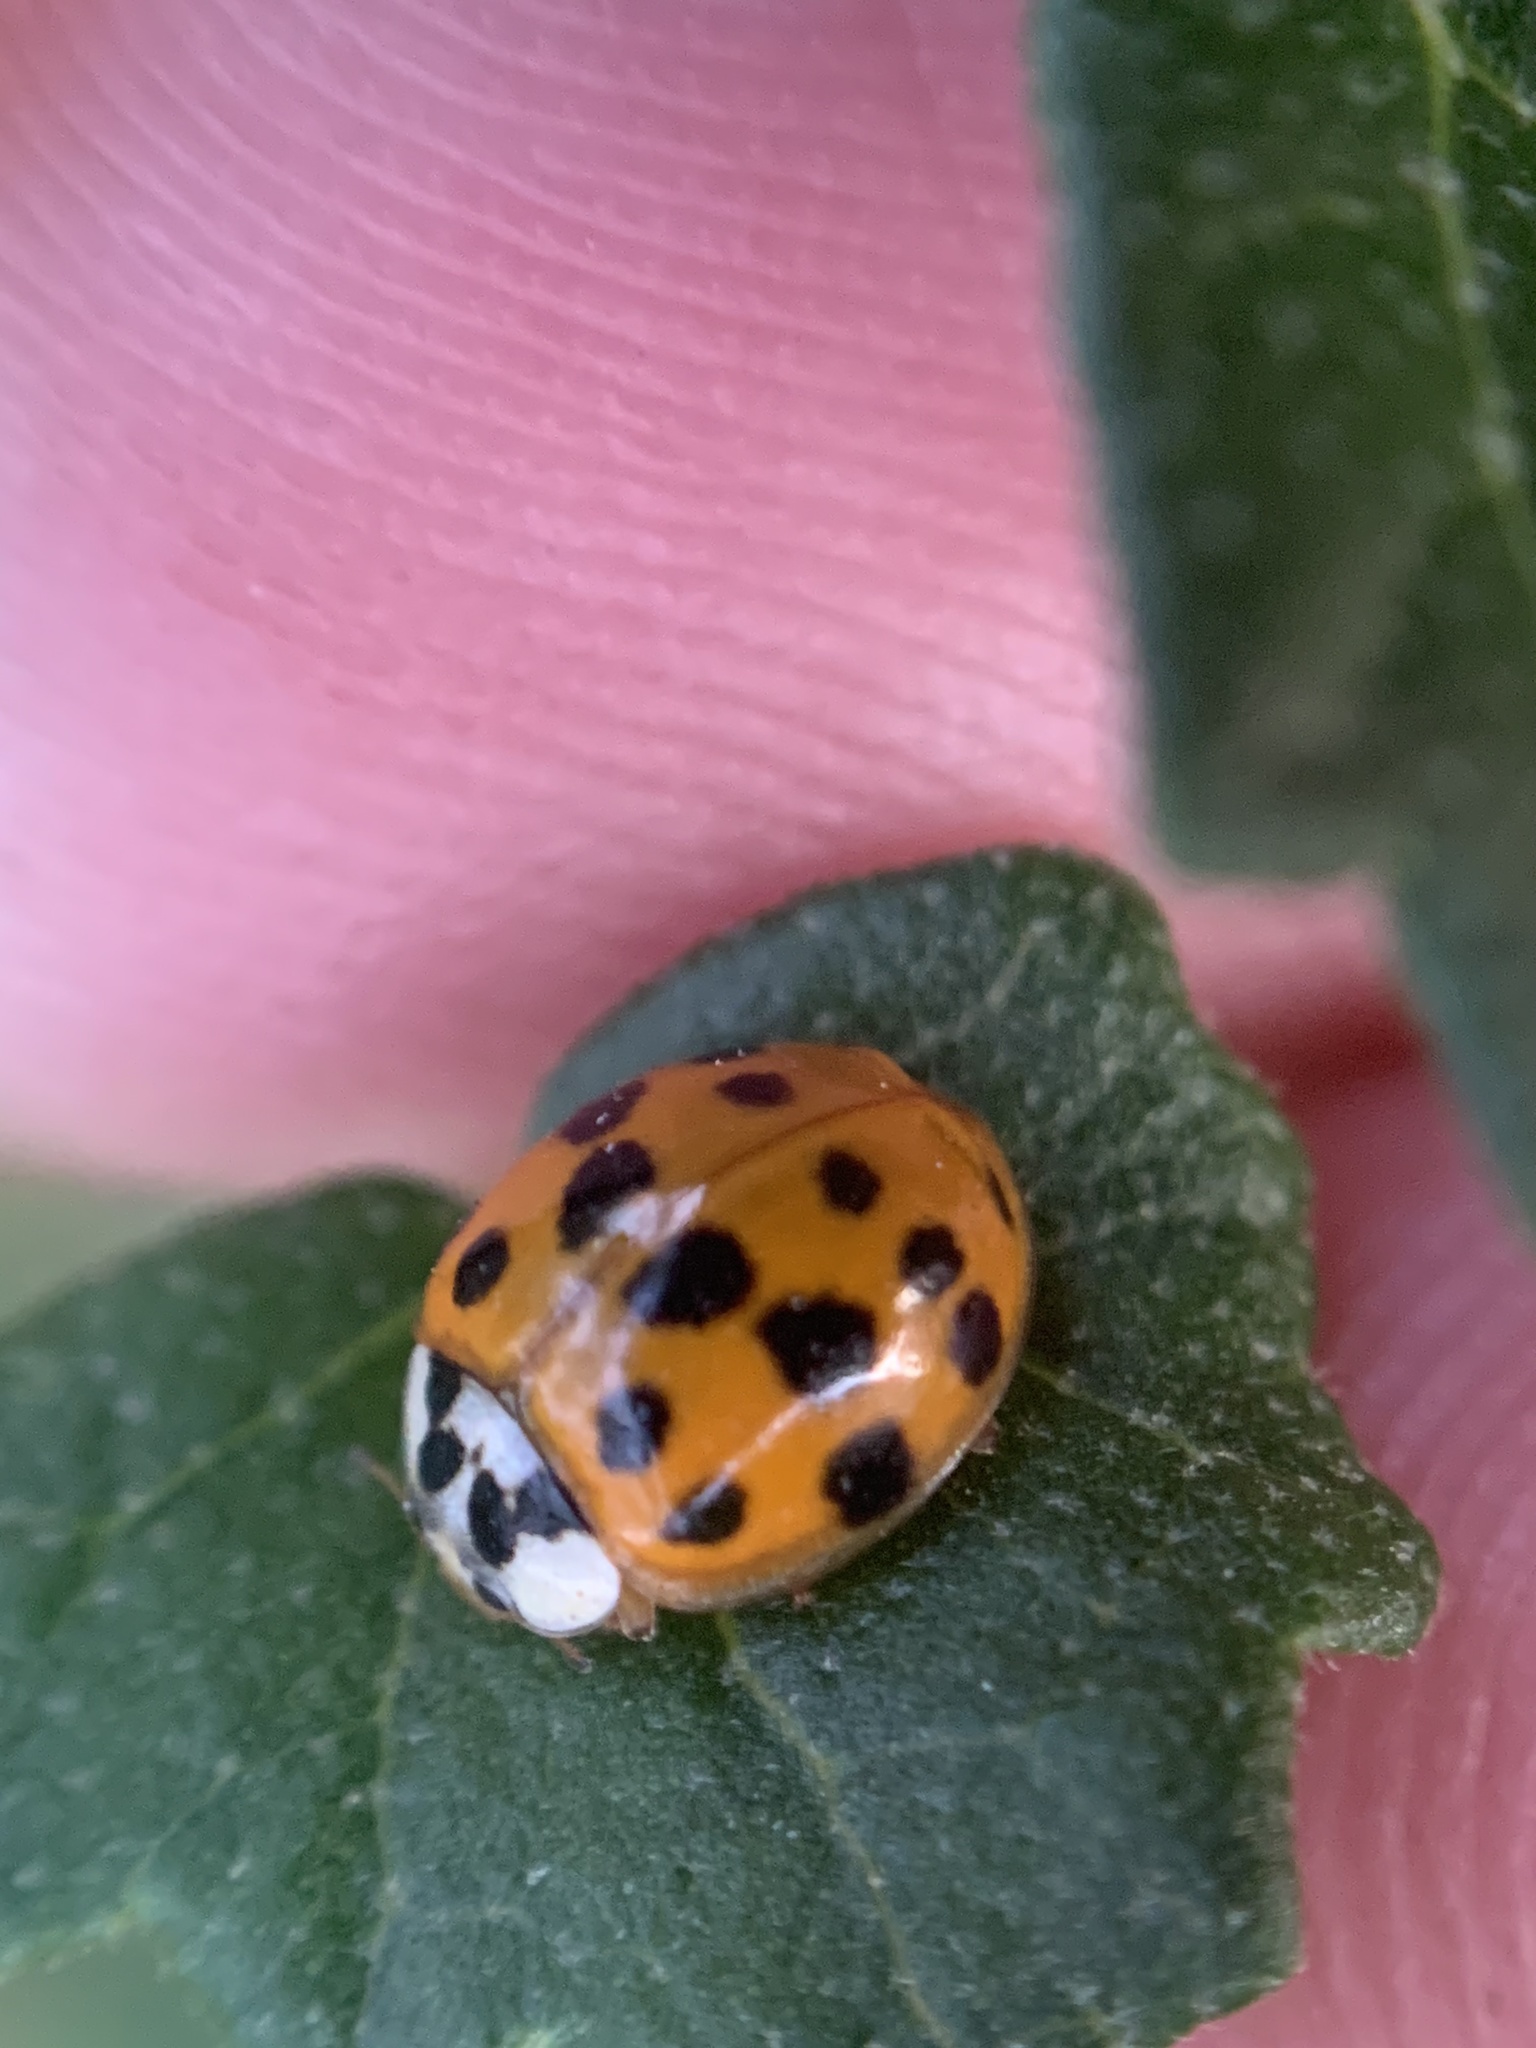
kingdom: Animalia
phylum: Arthropoda
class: Insecta
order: Coleoptera
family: Coccinellidae
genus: Harmonia
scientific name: Harmonia axyridis
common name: Harlequin ladybird
